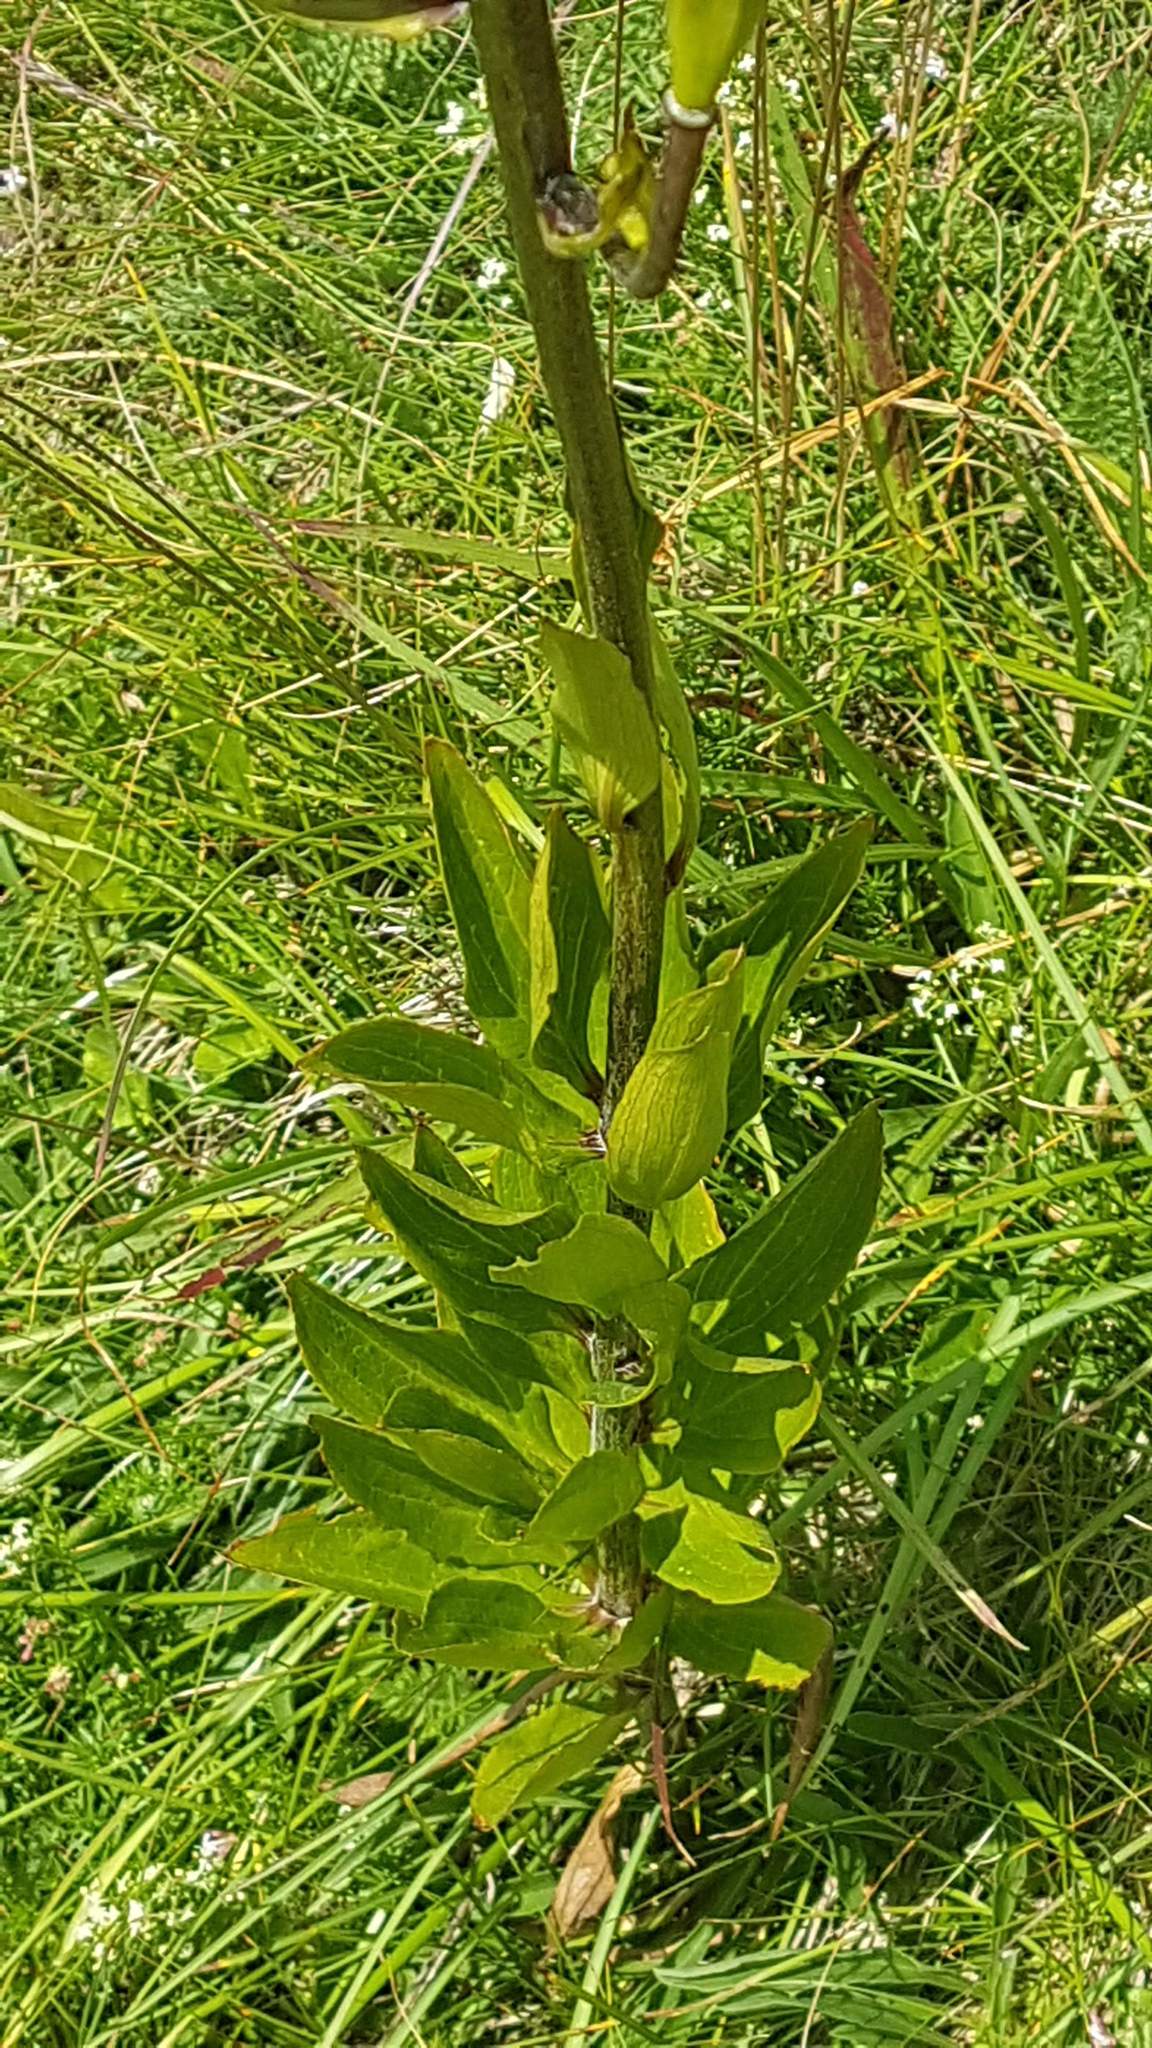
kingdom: Plantae
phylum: Tracheophyta
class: Liliopsida
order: Liliales
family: Liliaceae
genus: Lilium
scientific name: Lilium martagon
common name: Martagon lily
